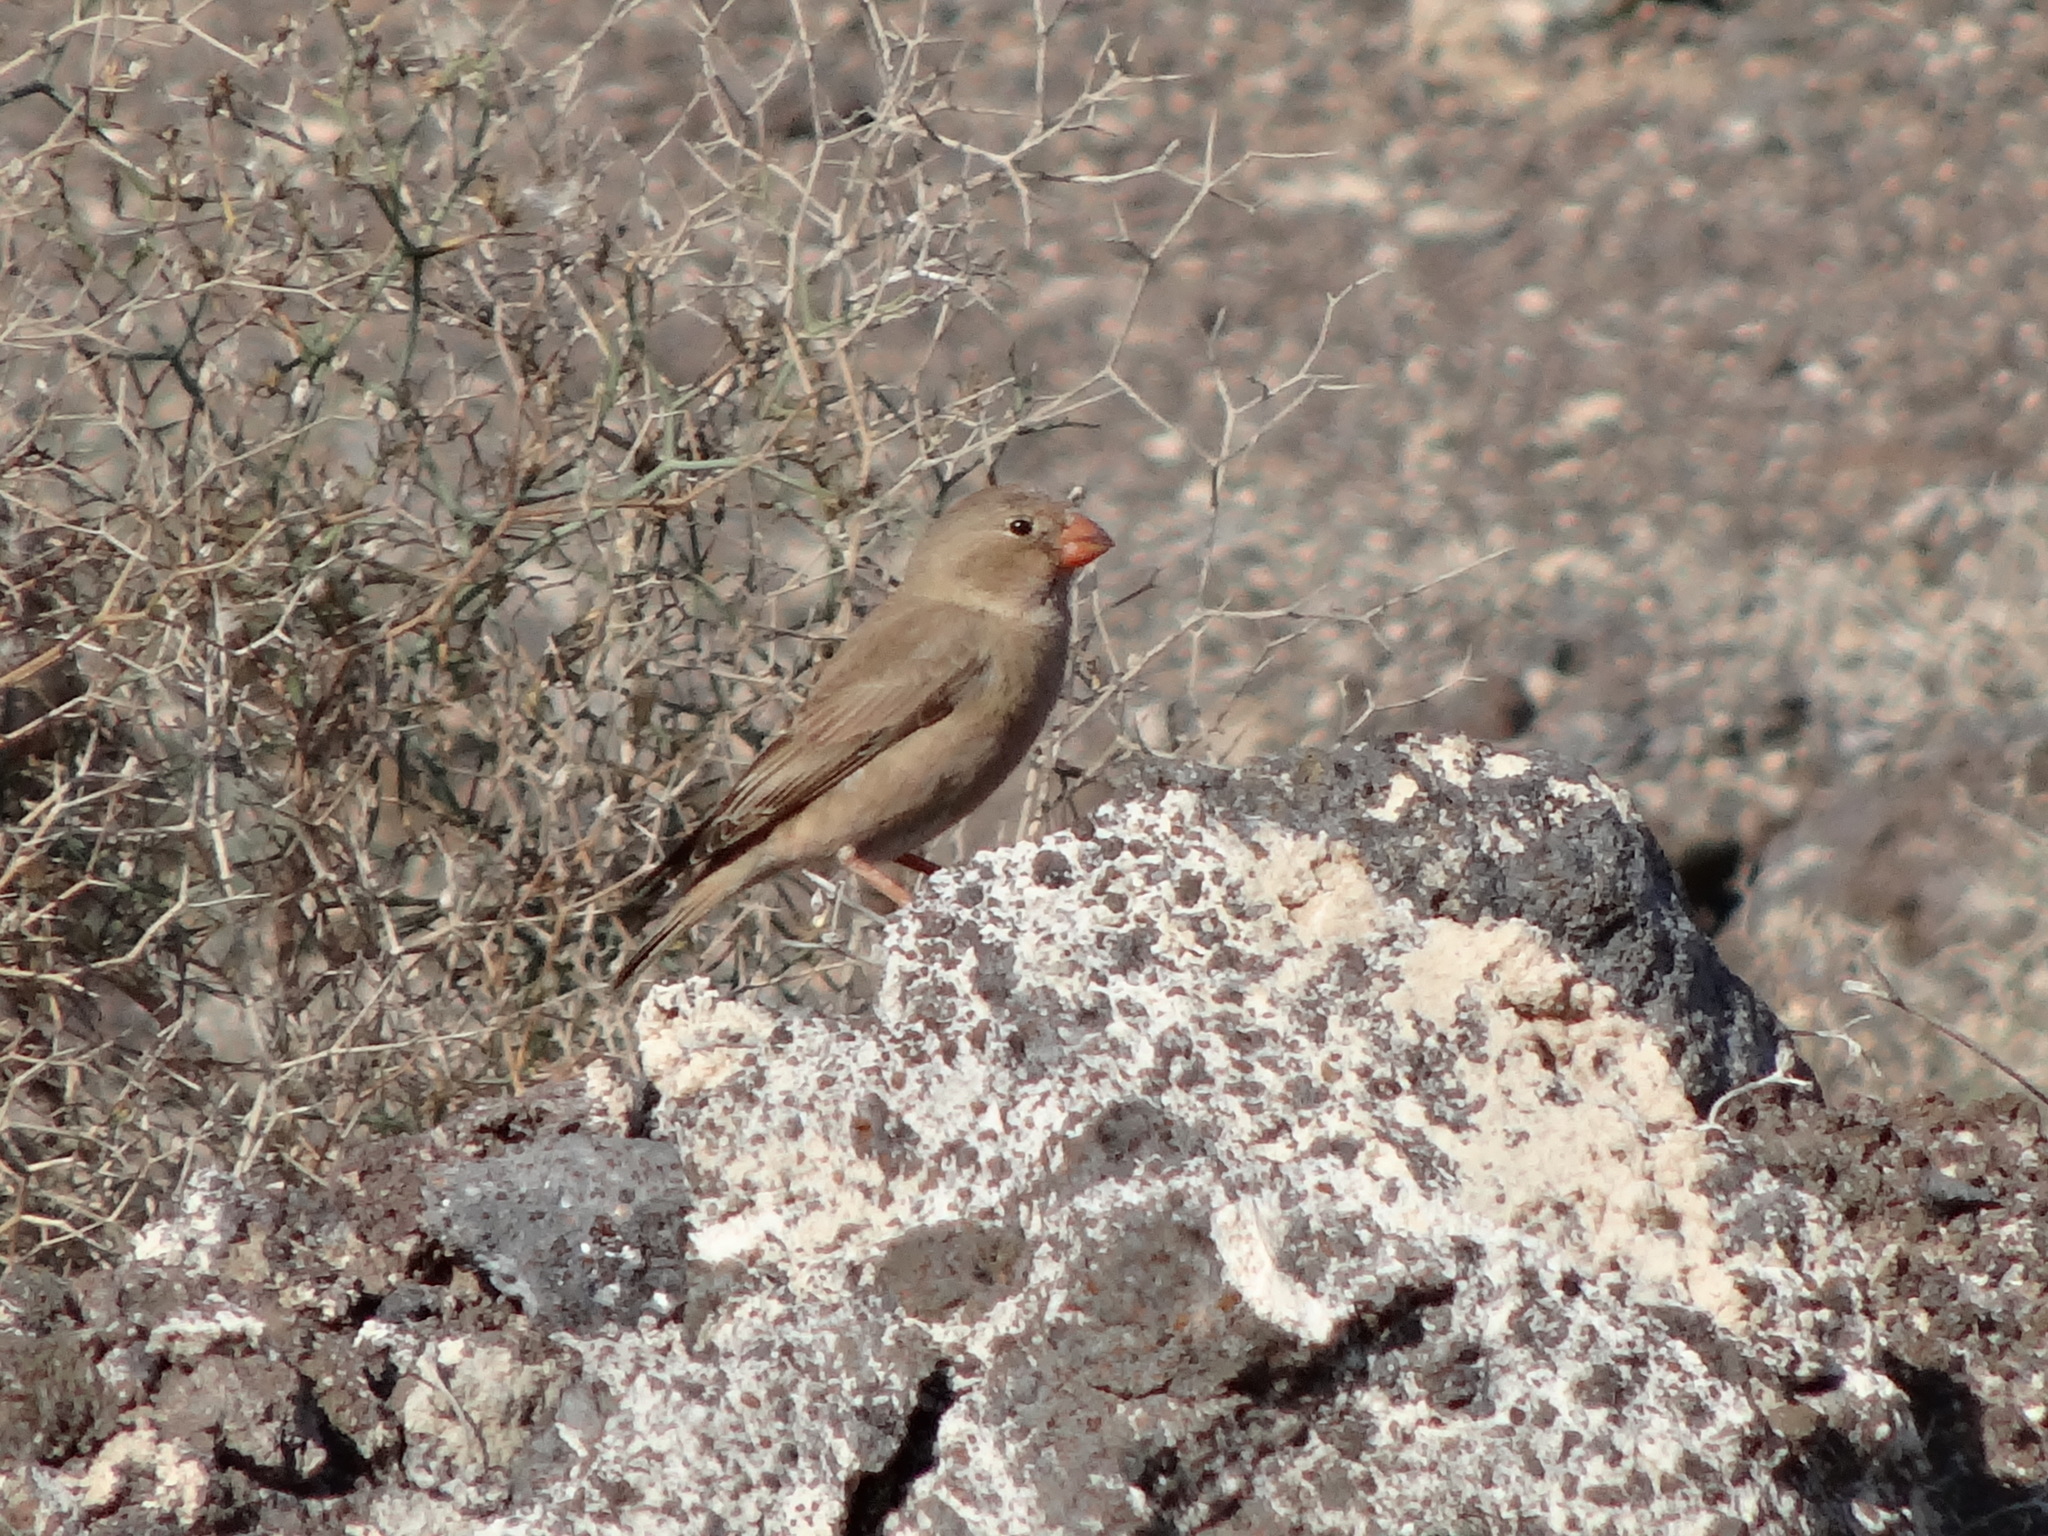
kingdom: Animalia
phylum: Chordata
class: Aves
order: Passeriformes
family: Fringillidae
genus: Bucanetes
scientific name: Bucanetes githagineus
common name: Trumpeter finch
